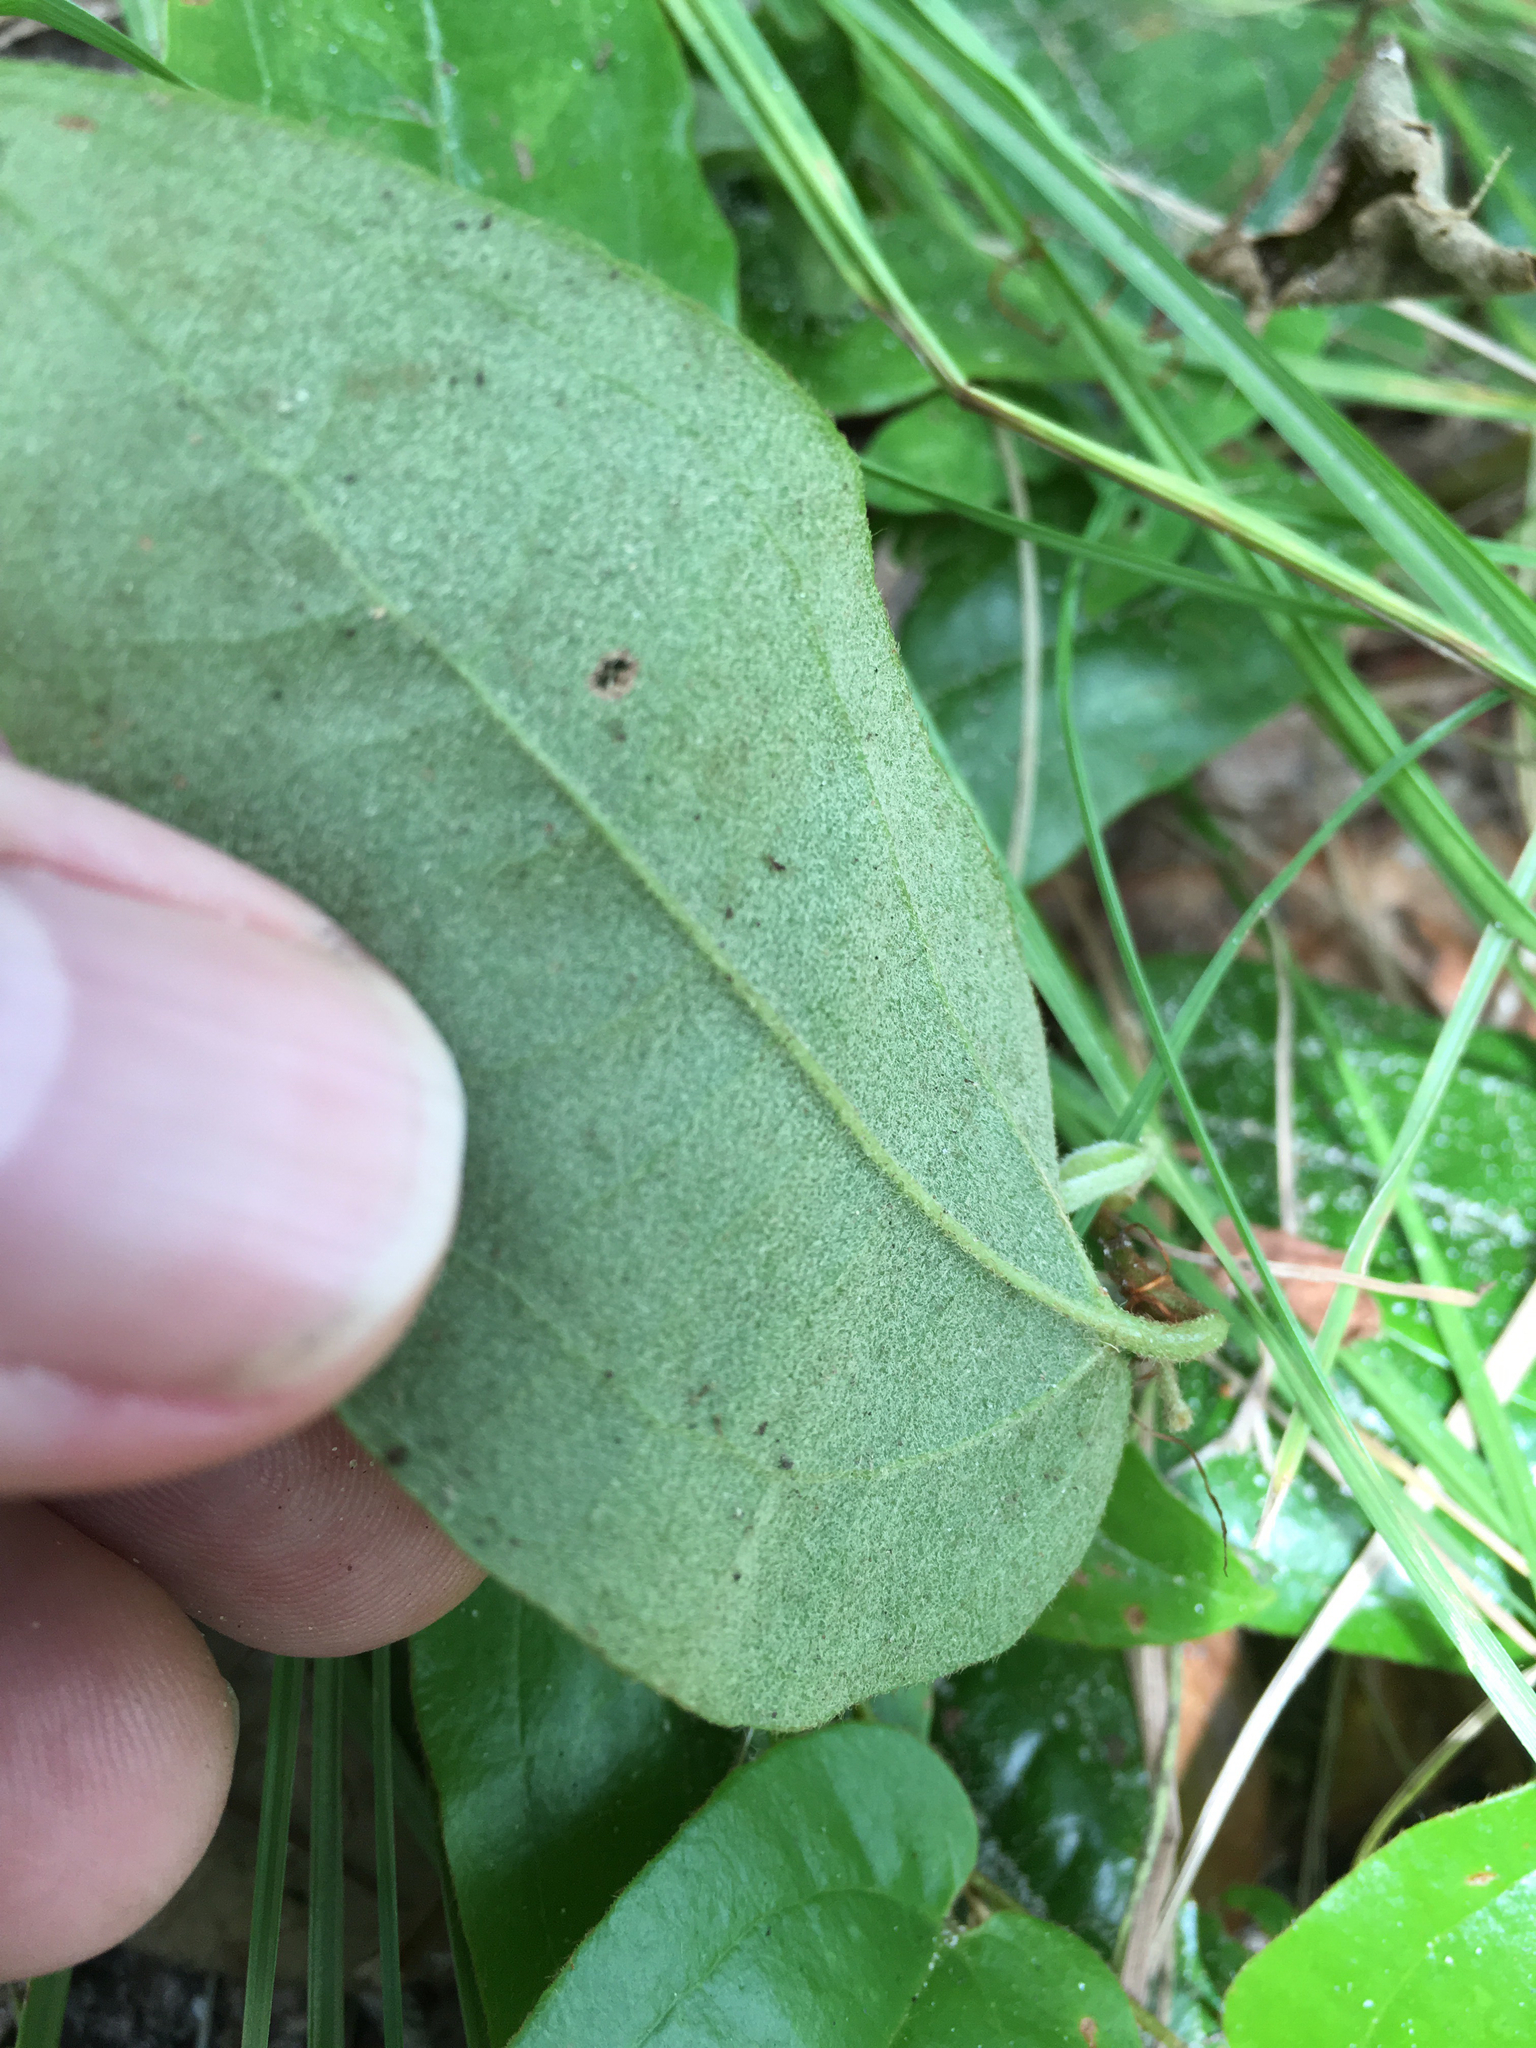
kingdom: Plantae
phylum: Tracheophyta
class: Liliopsida
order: Liliales
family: Smilacaceae
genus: Smilax
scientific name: Smilax pumila
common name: Sarsaparilla-vine
